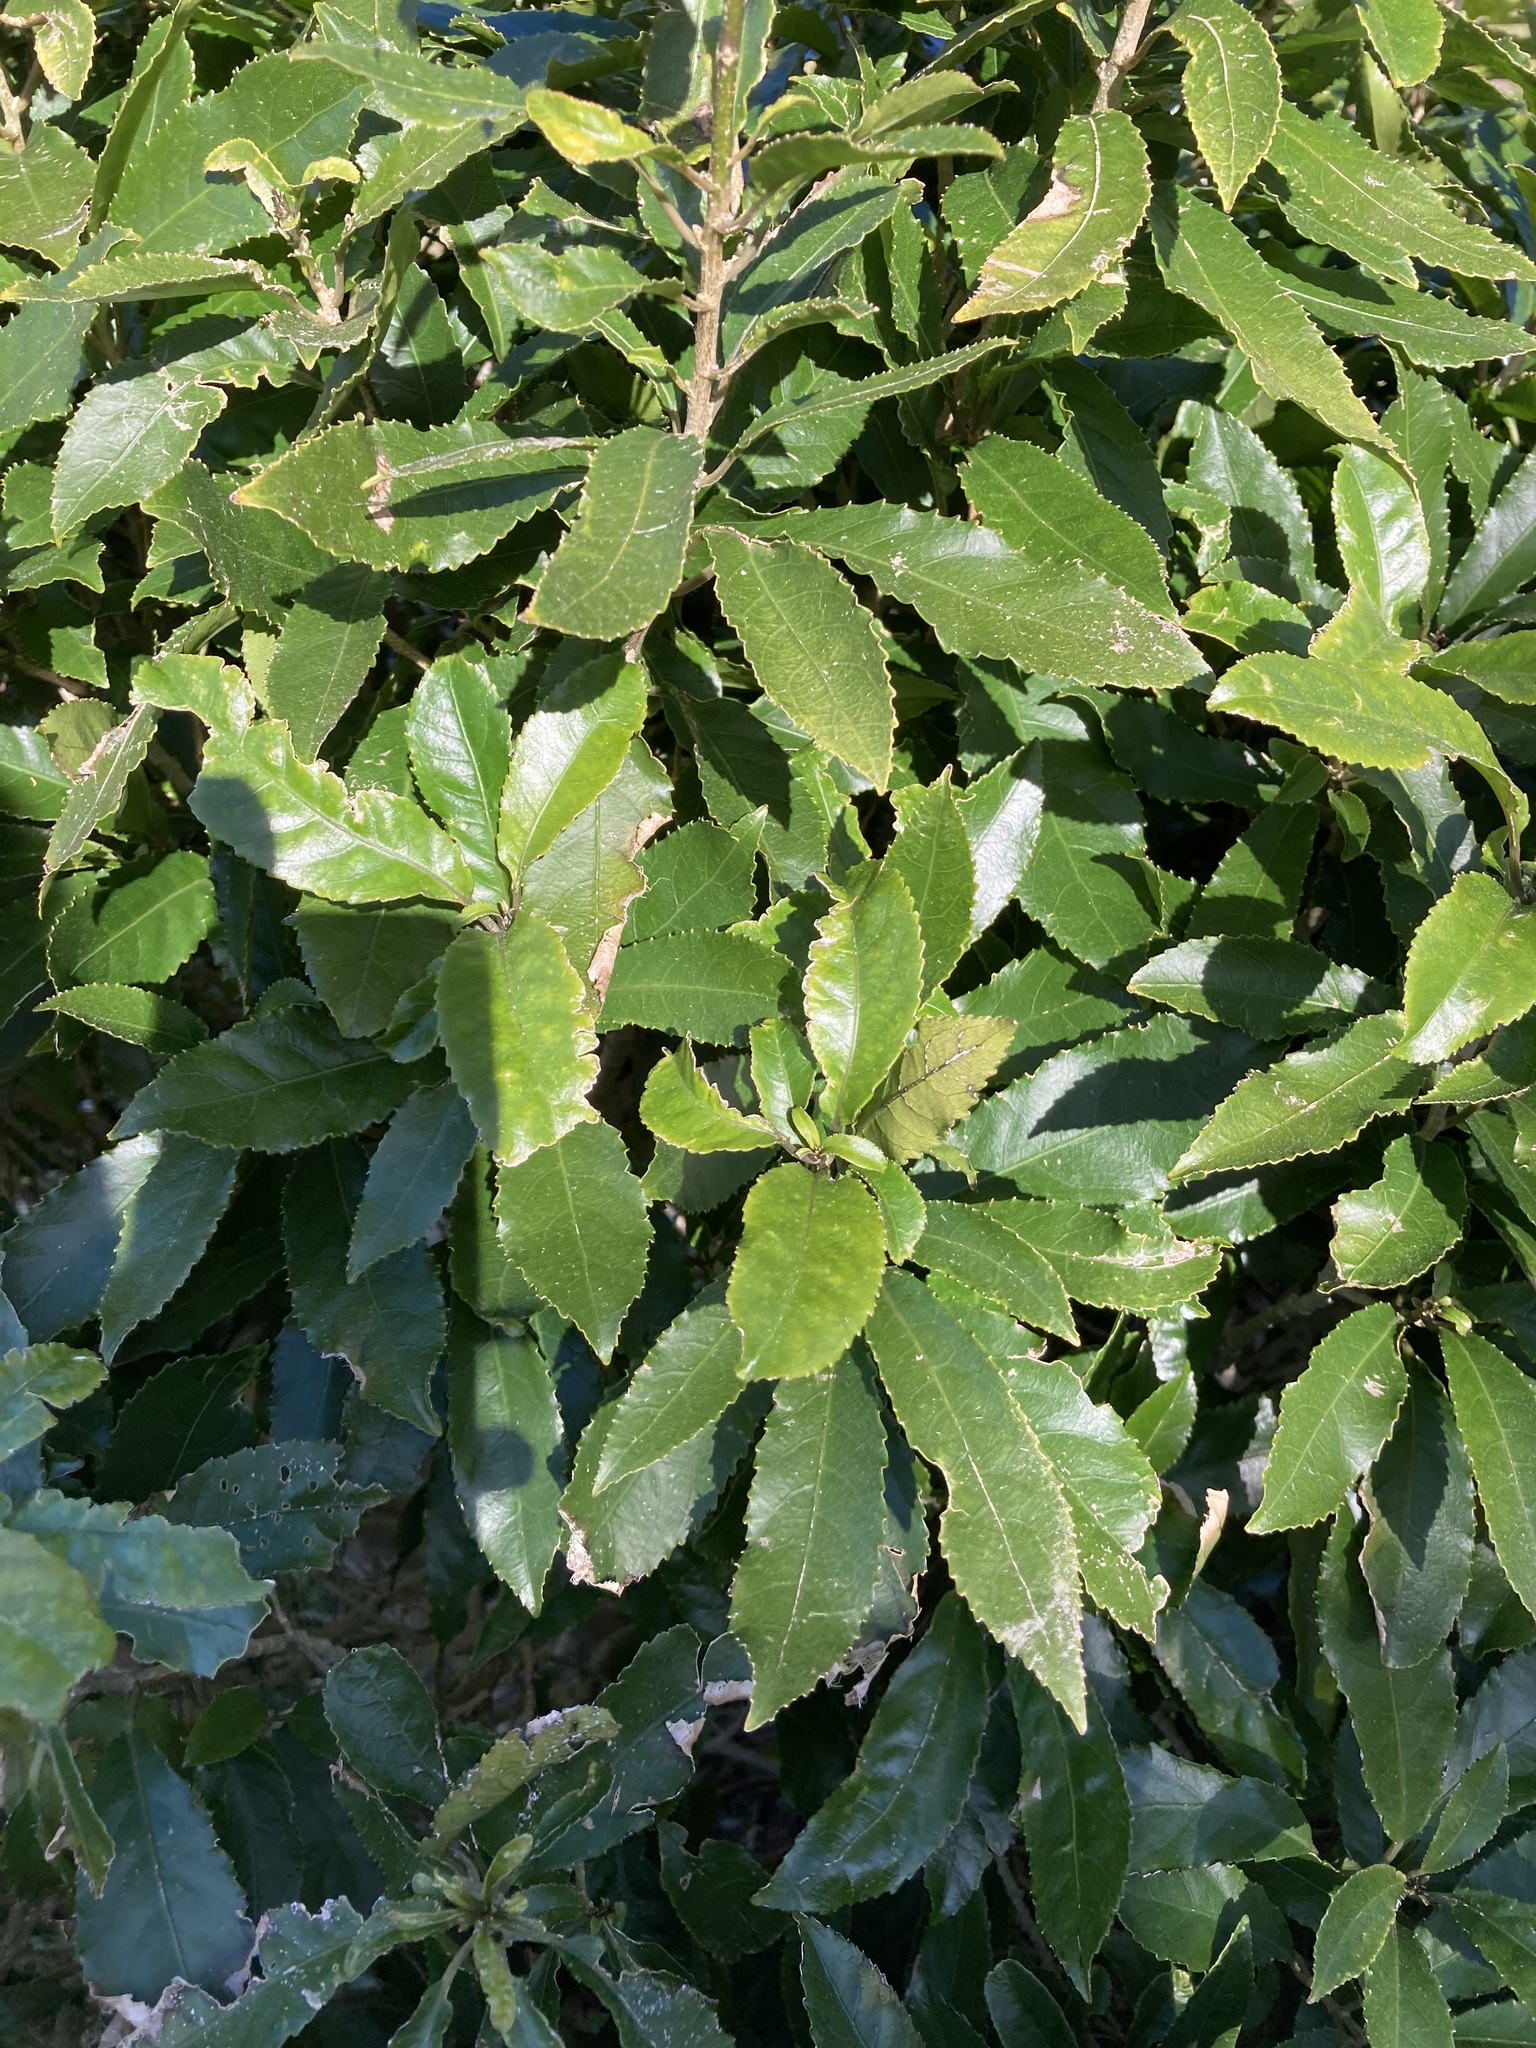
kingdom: Plantae
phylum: Tracheophyta
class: Magnoliopsida
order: Malpighiales
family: Violaceae
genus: Melicytus
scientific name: Melicytus ramiflorus
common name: Mahoe
